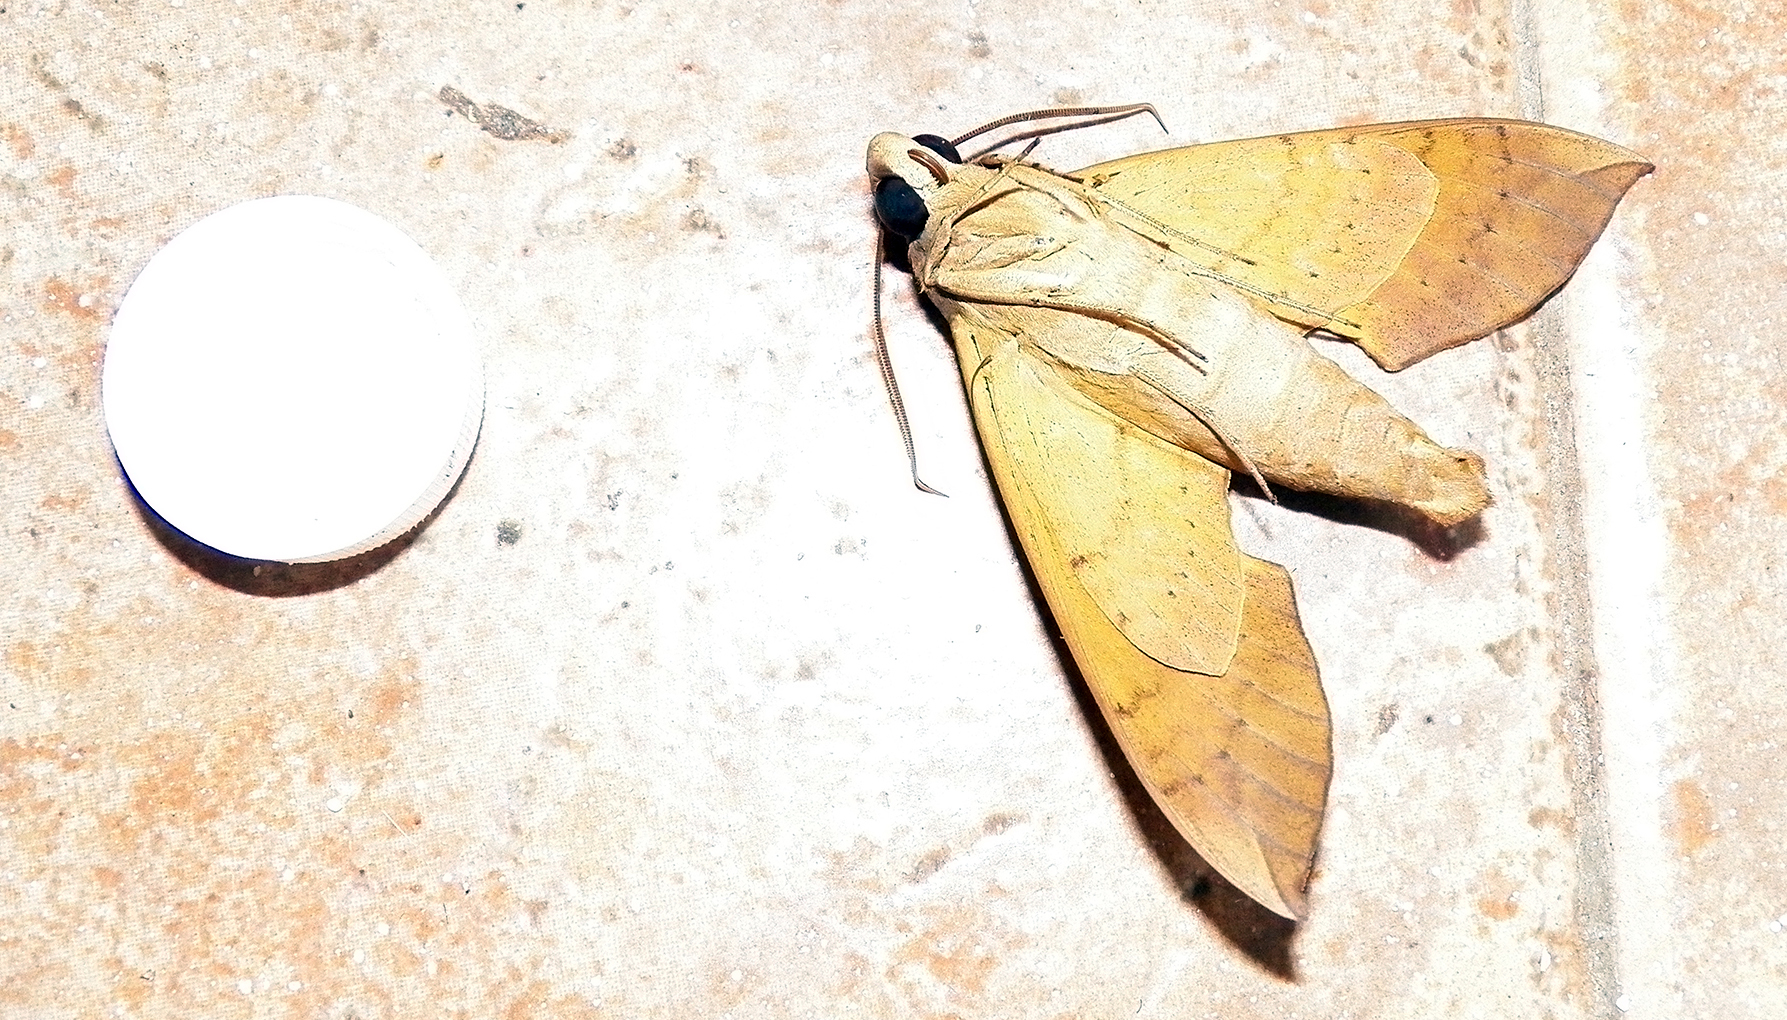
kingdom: Animalia
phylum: Arthropoda
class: Insecta
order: Lepidoptera
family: Sphingidae
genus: Pachylia
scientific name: Pachylia ficus
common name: Fig sphinx
